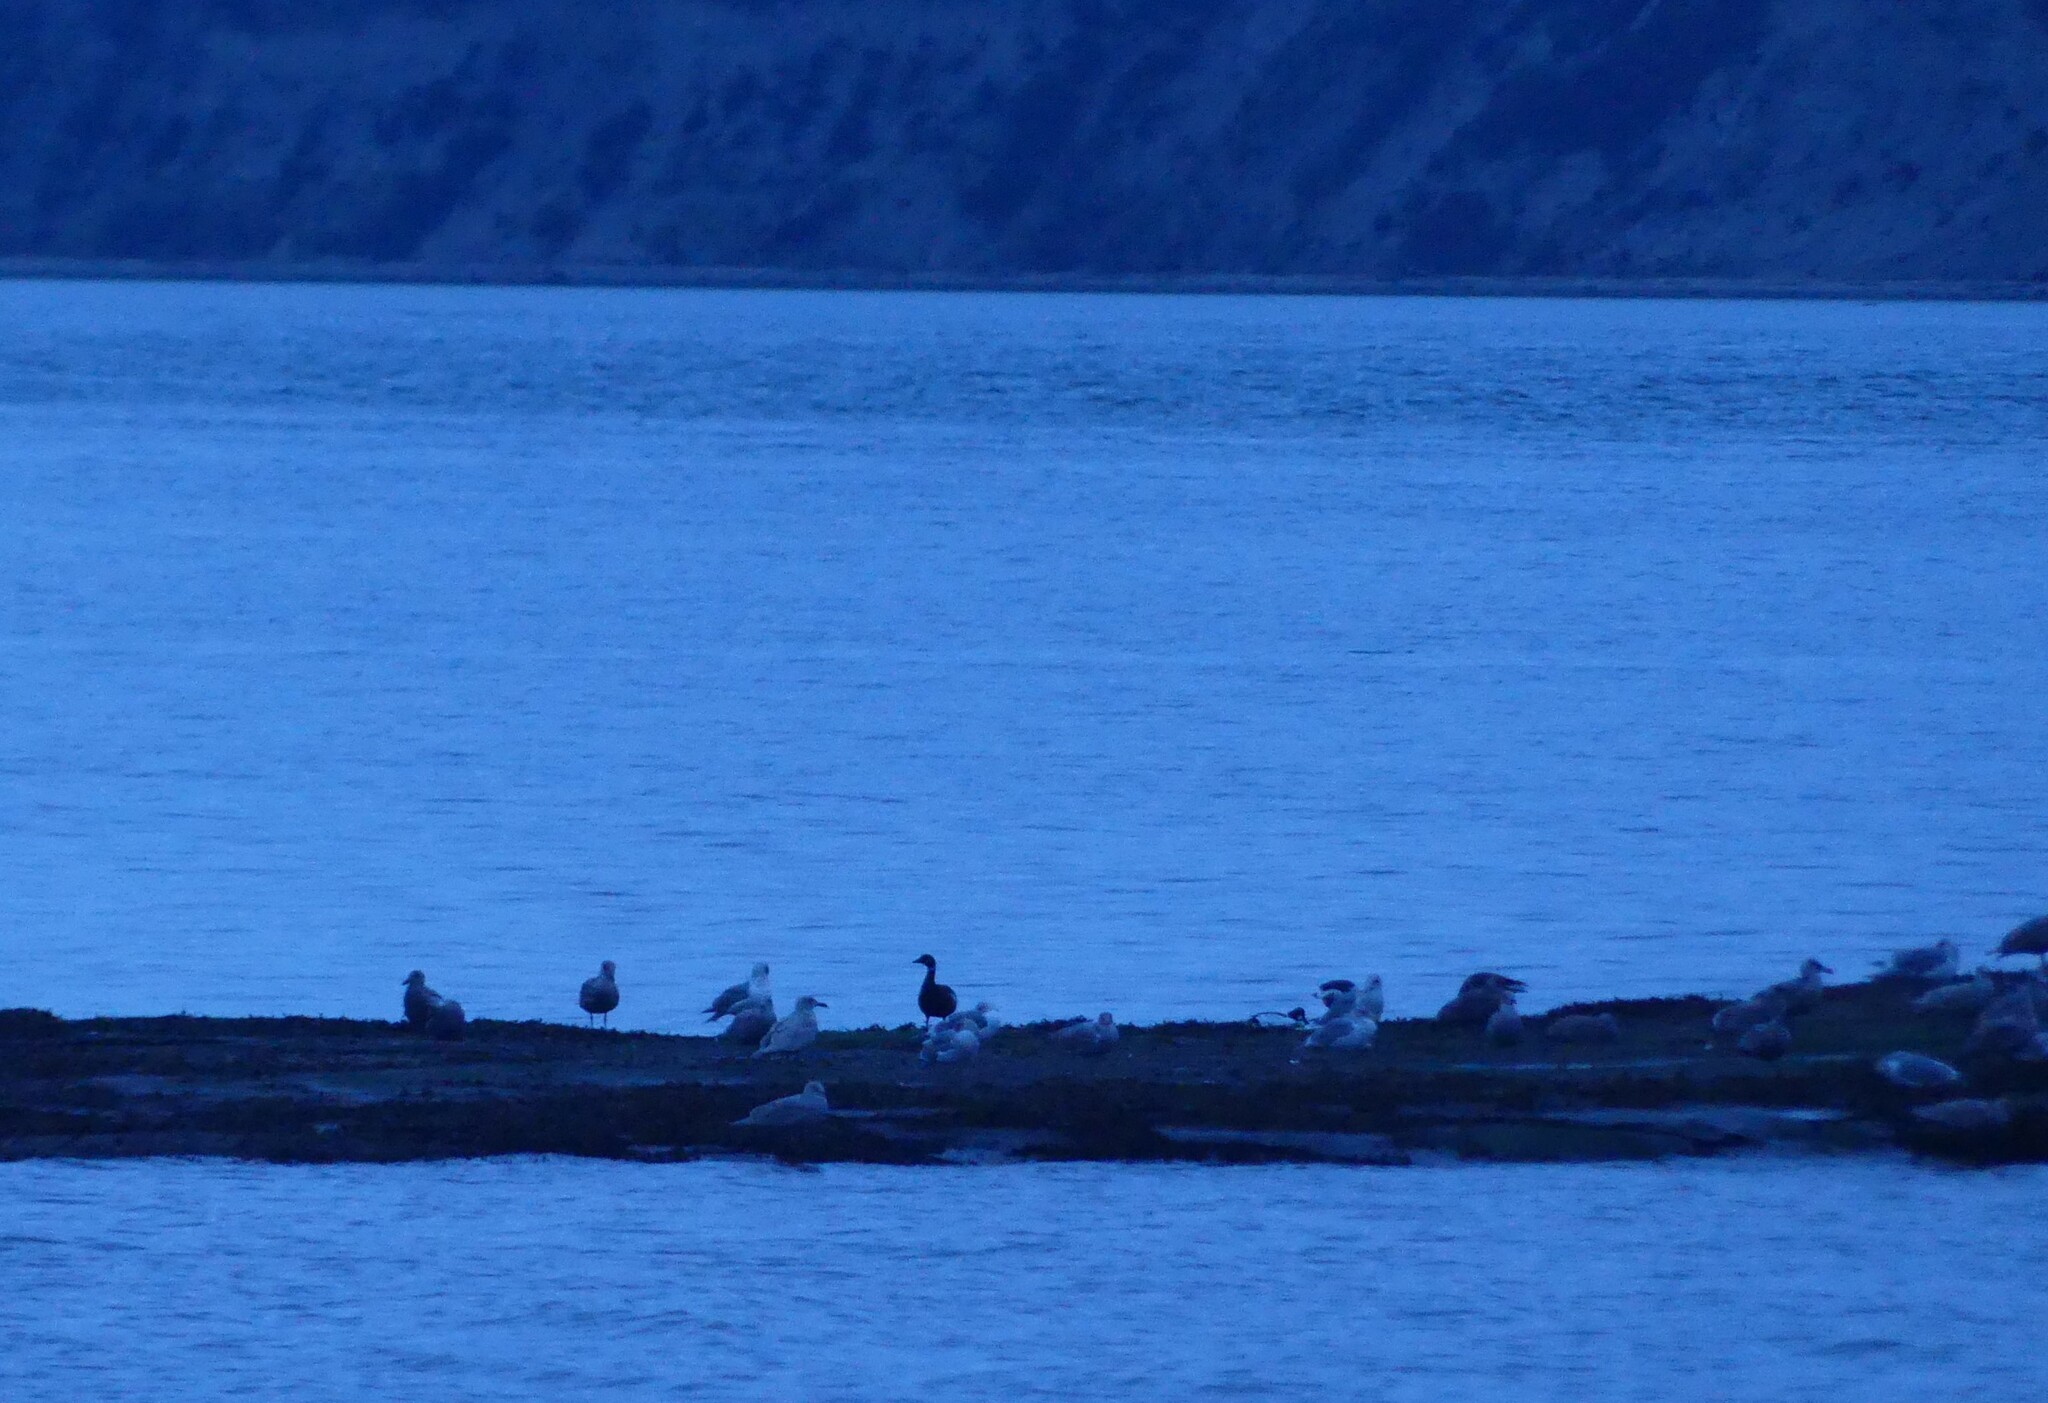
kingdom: Animalia
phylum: Chordata
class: Aves
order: Anseriformes
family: Anatidae
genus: Branta
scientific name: Branta bernicla
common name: Brant goose
